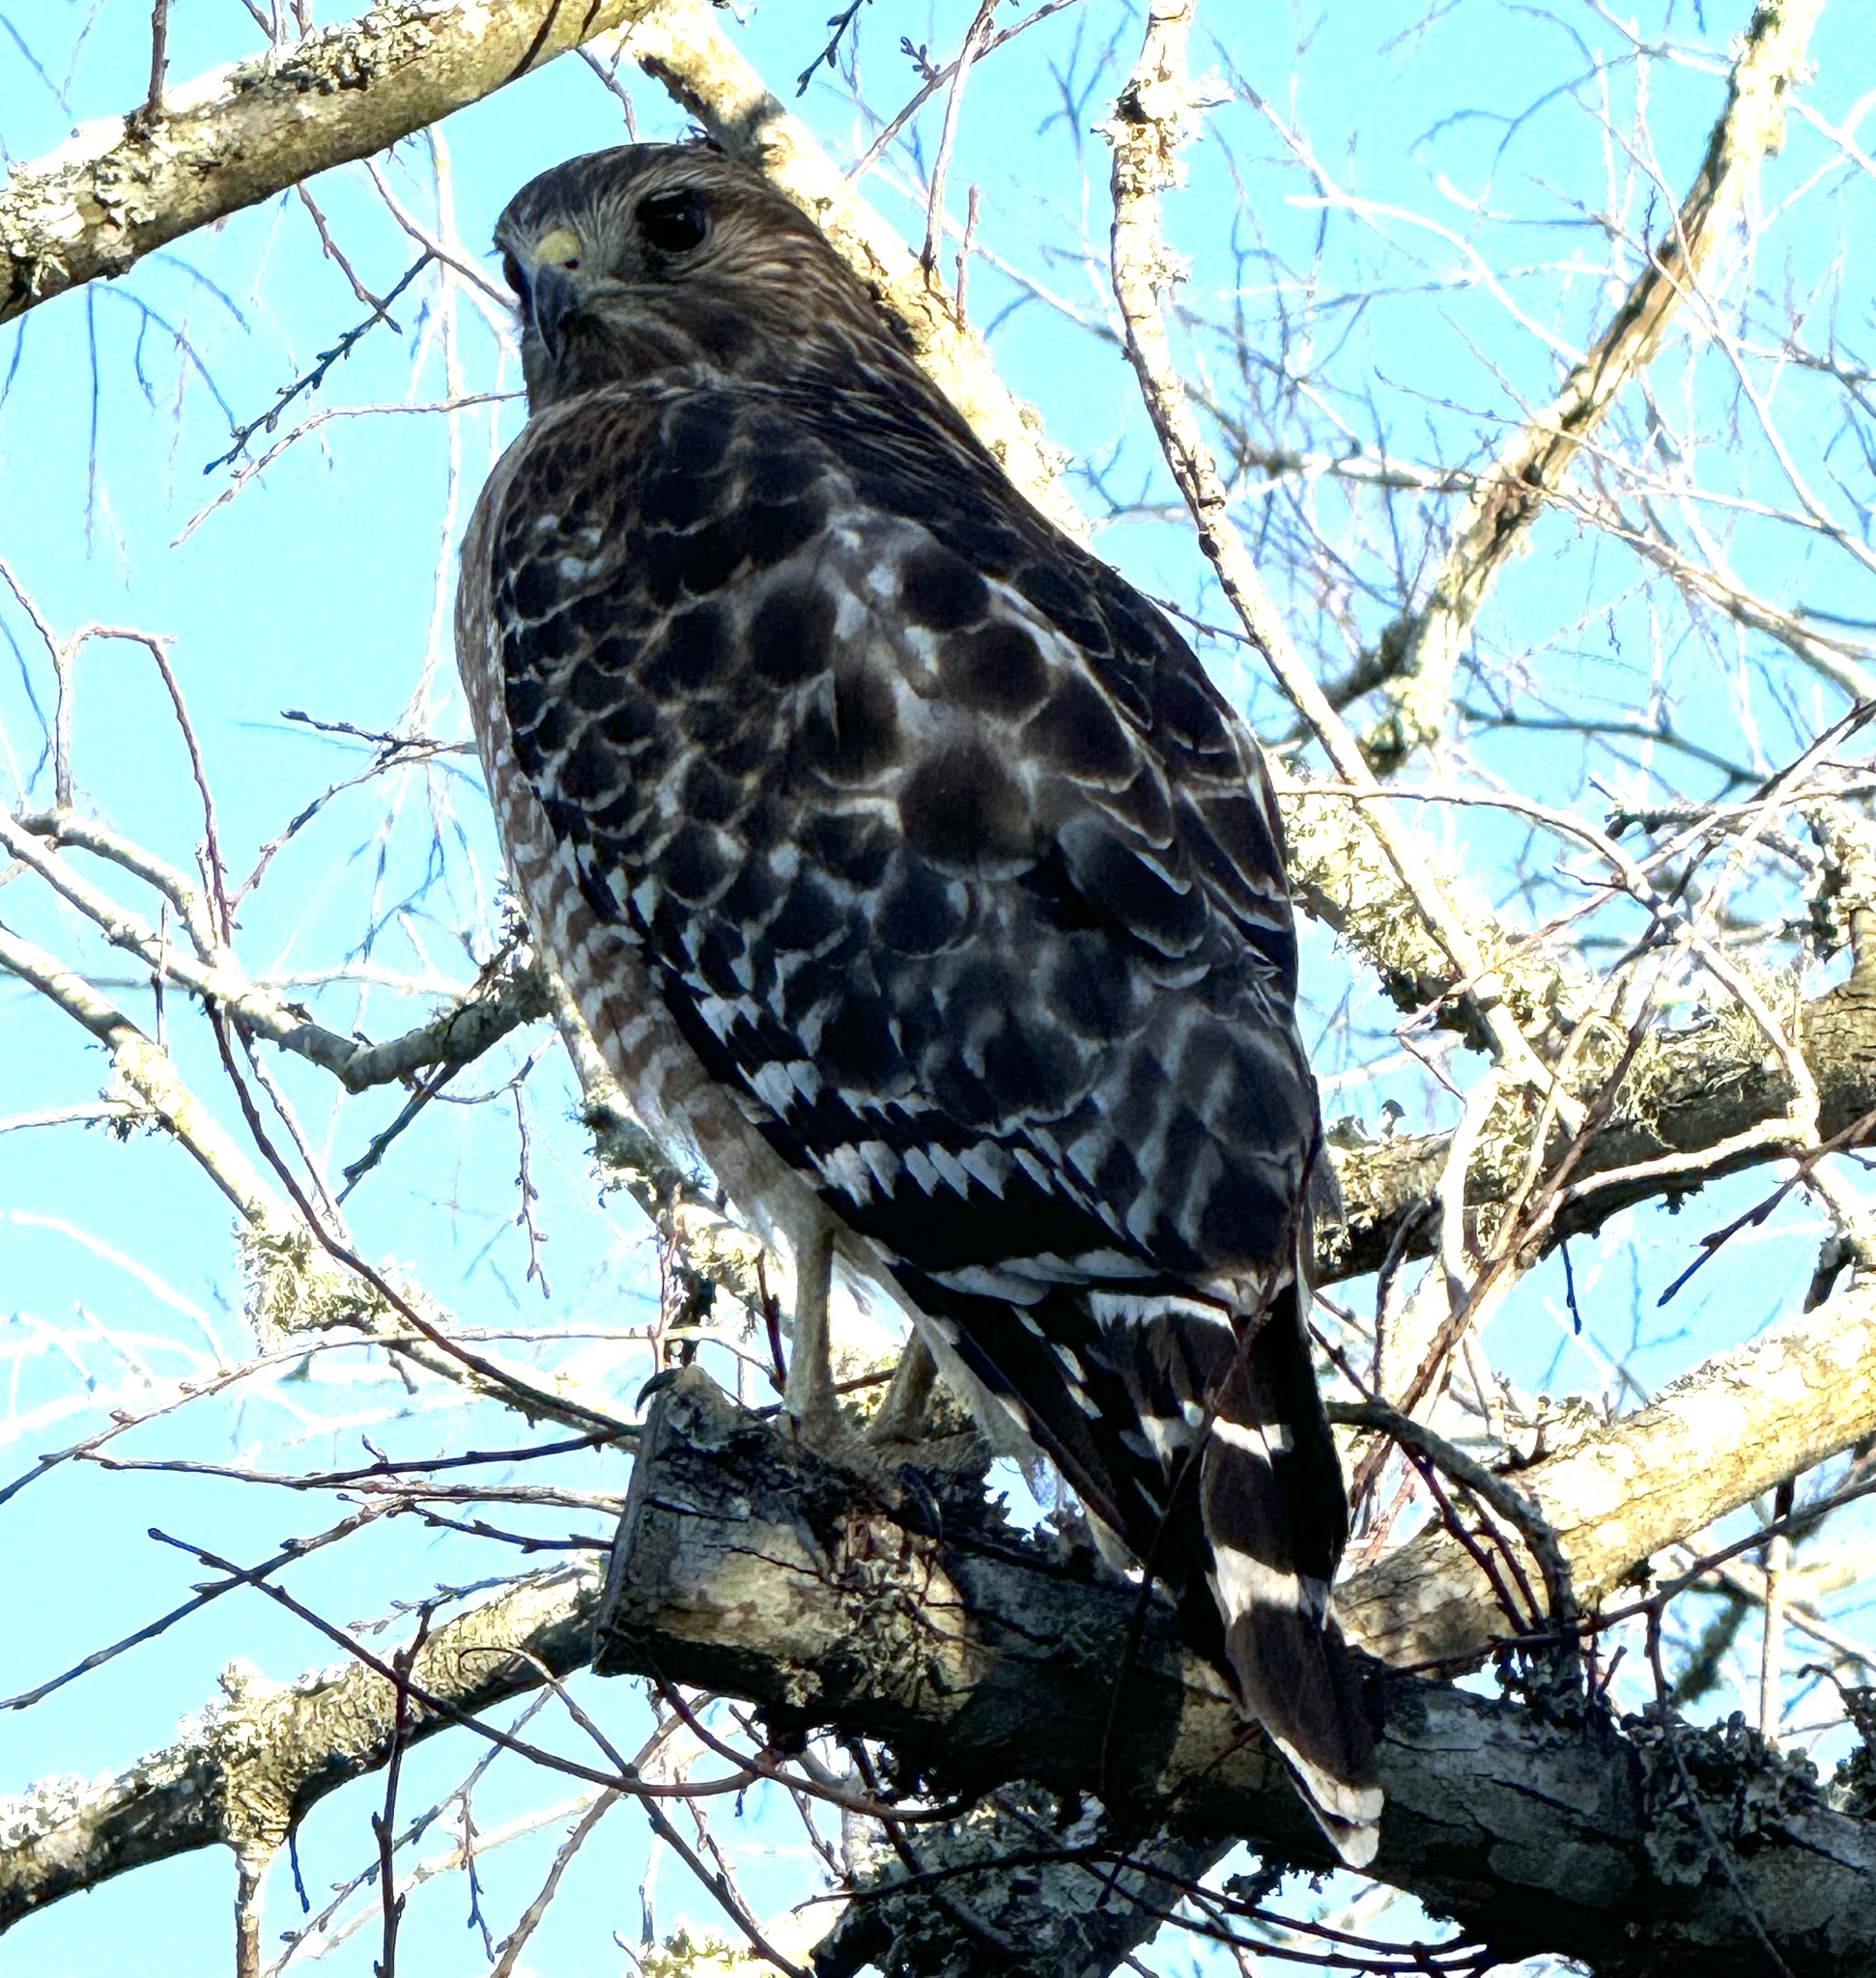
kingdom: Animalia
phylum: Chordata
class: Aves
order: Accipitriformes
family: Accipitridae
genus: Buteo
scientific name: Buteo lineatus
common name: Red-shouldered hawk
